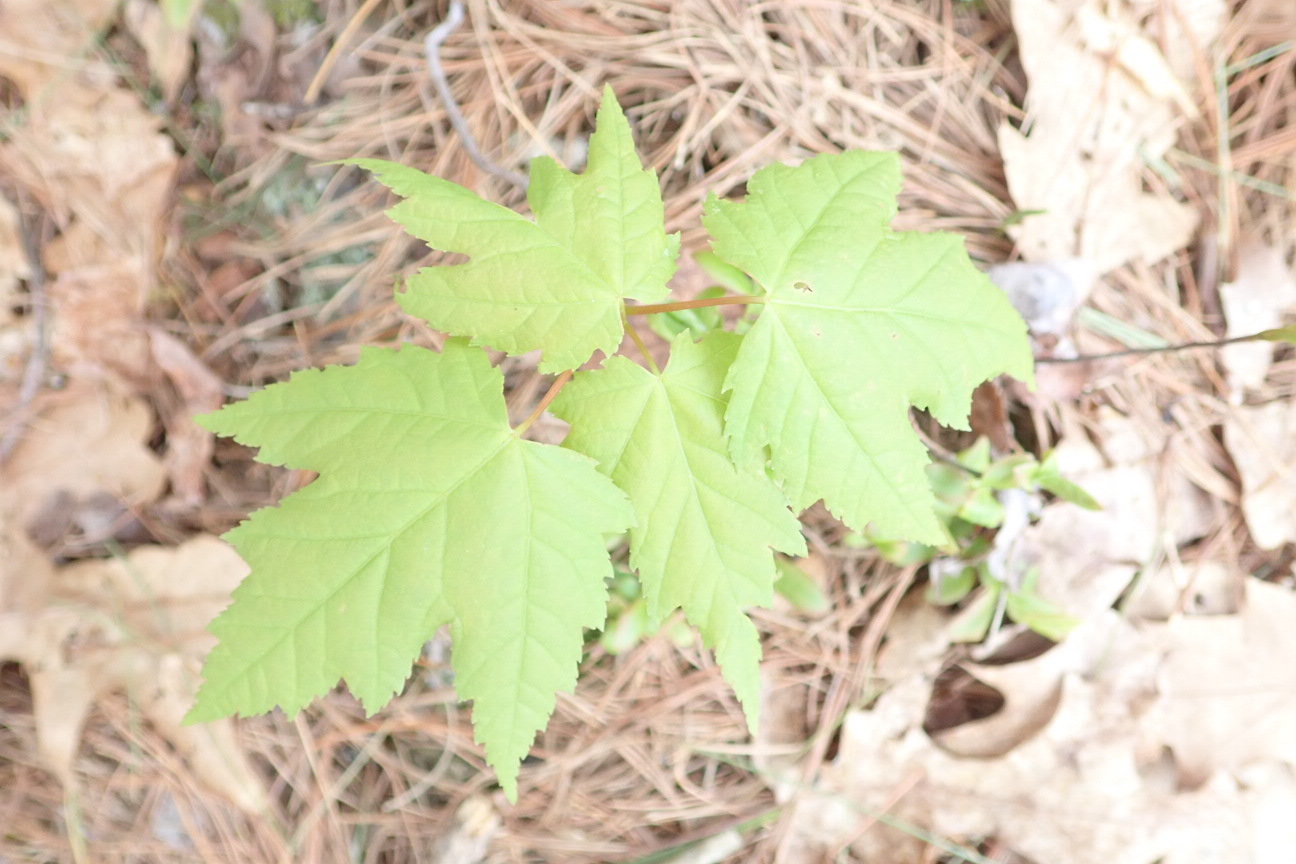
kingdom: Plantae
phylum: Tracheophyta
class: Magnoliopsida
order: Sapindales
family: Sapindaceae
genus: Acer
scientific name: Acer rubrum
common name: Red maple
